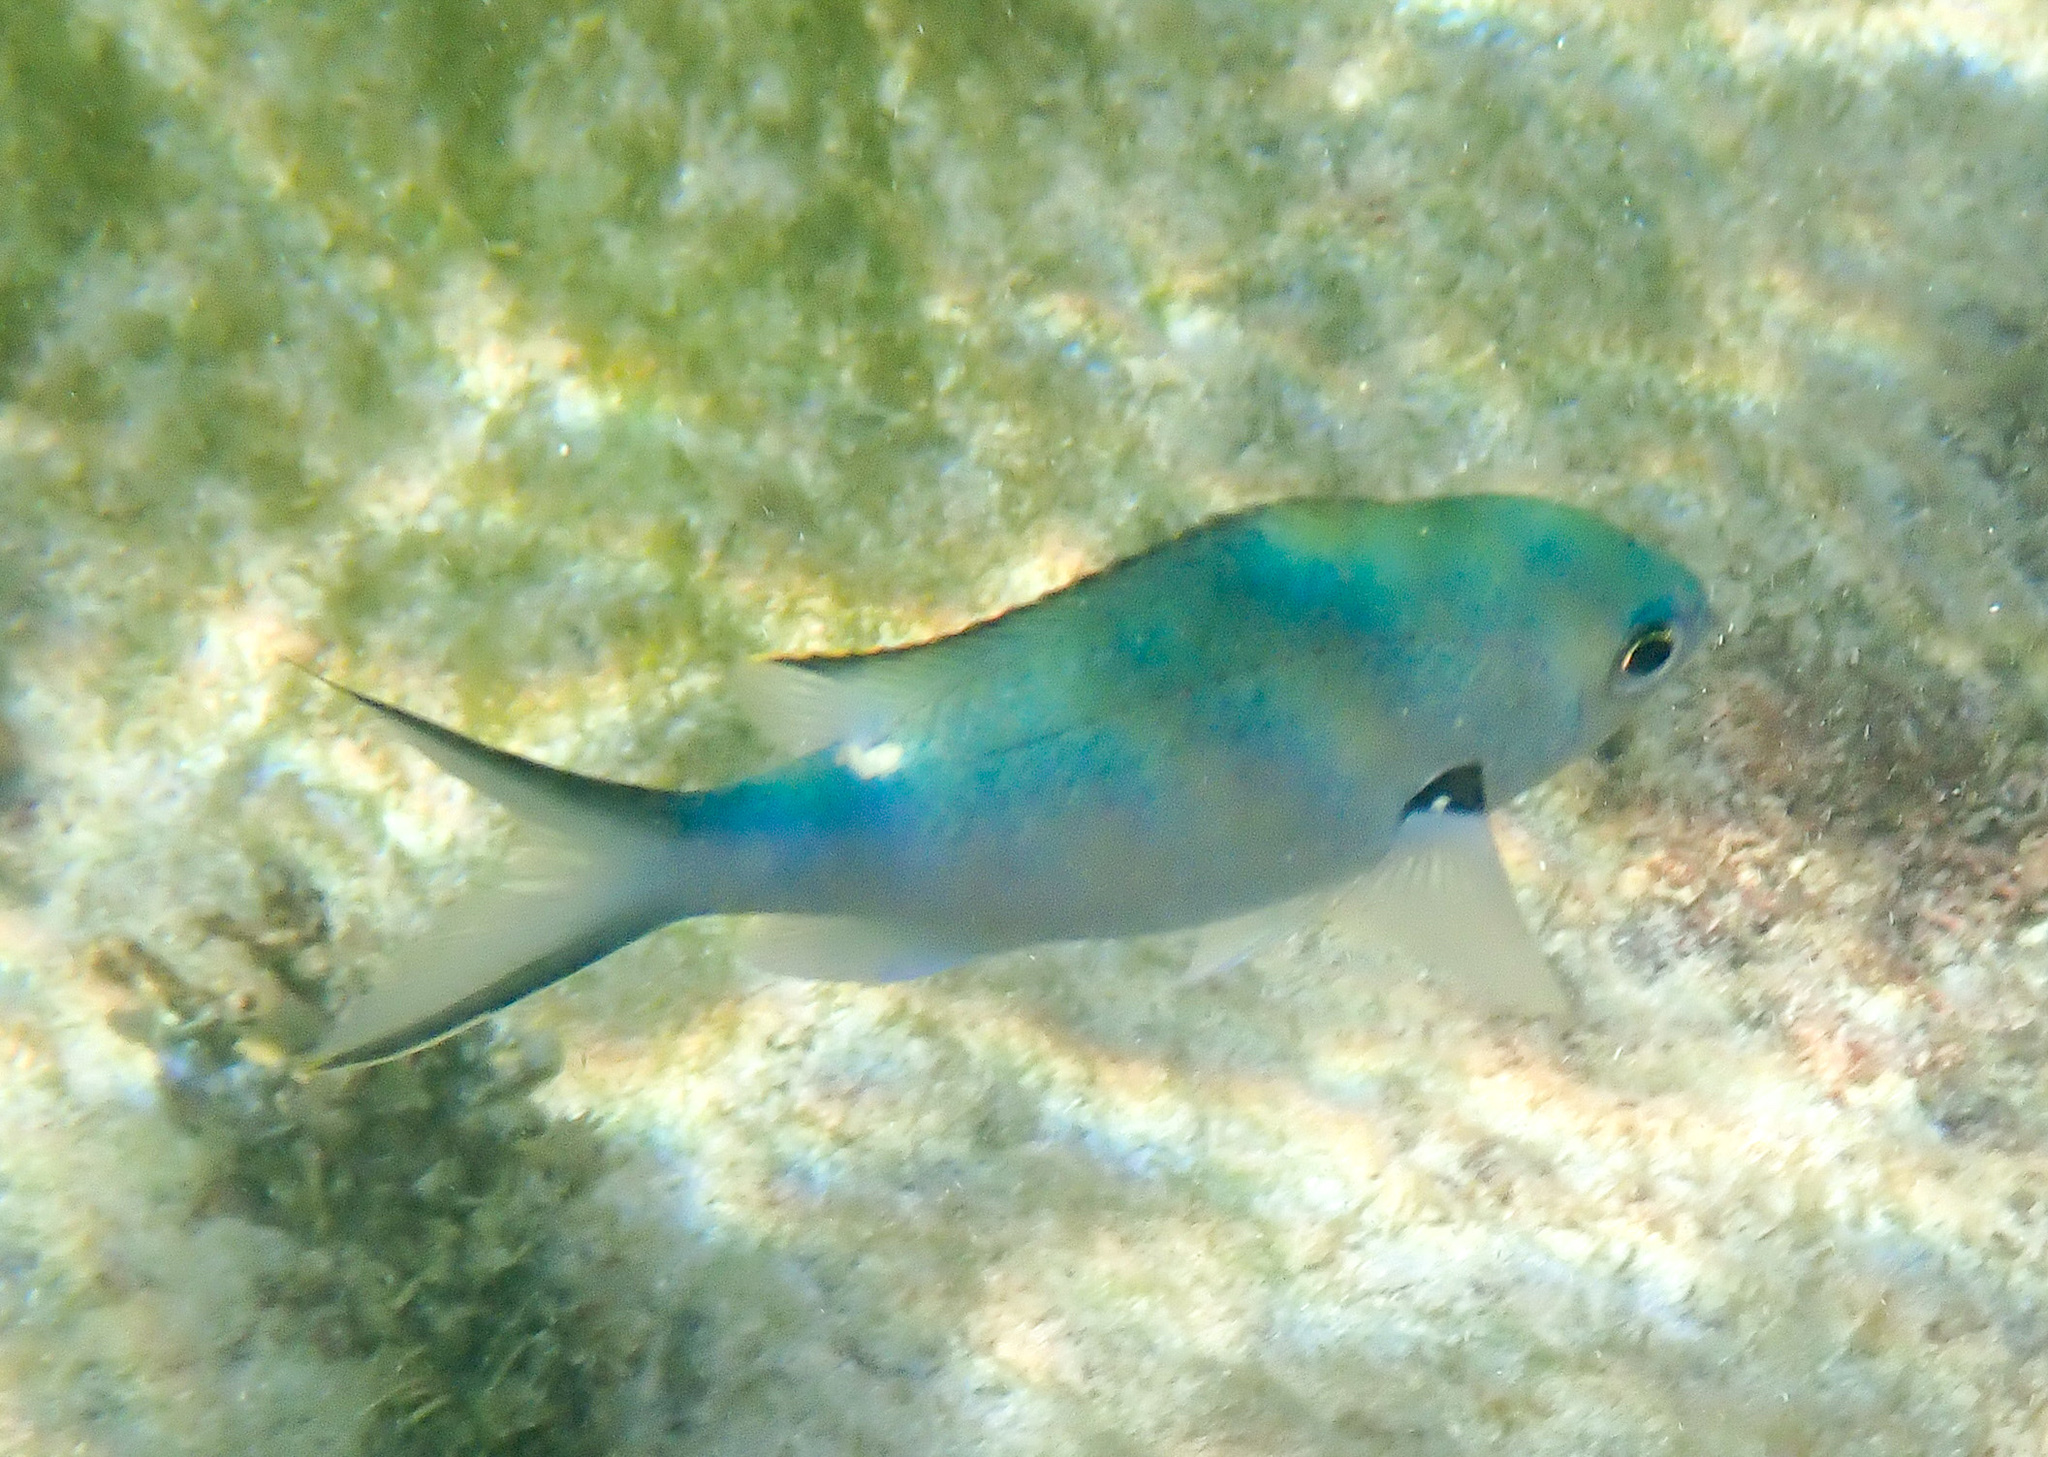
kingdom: Animalia
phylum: Chordata
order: Perciformes
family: Pomacentridae
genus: Chromis
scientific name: Chromis multilineata
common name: Brown chromis
